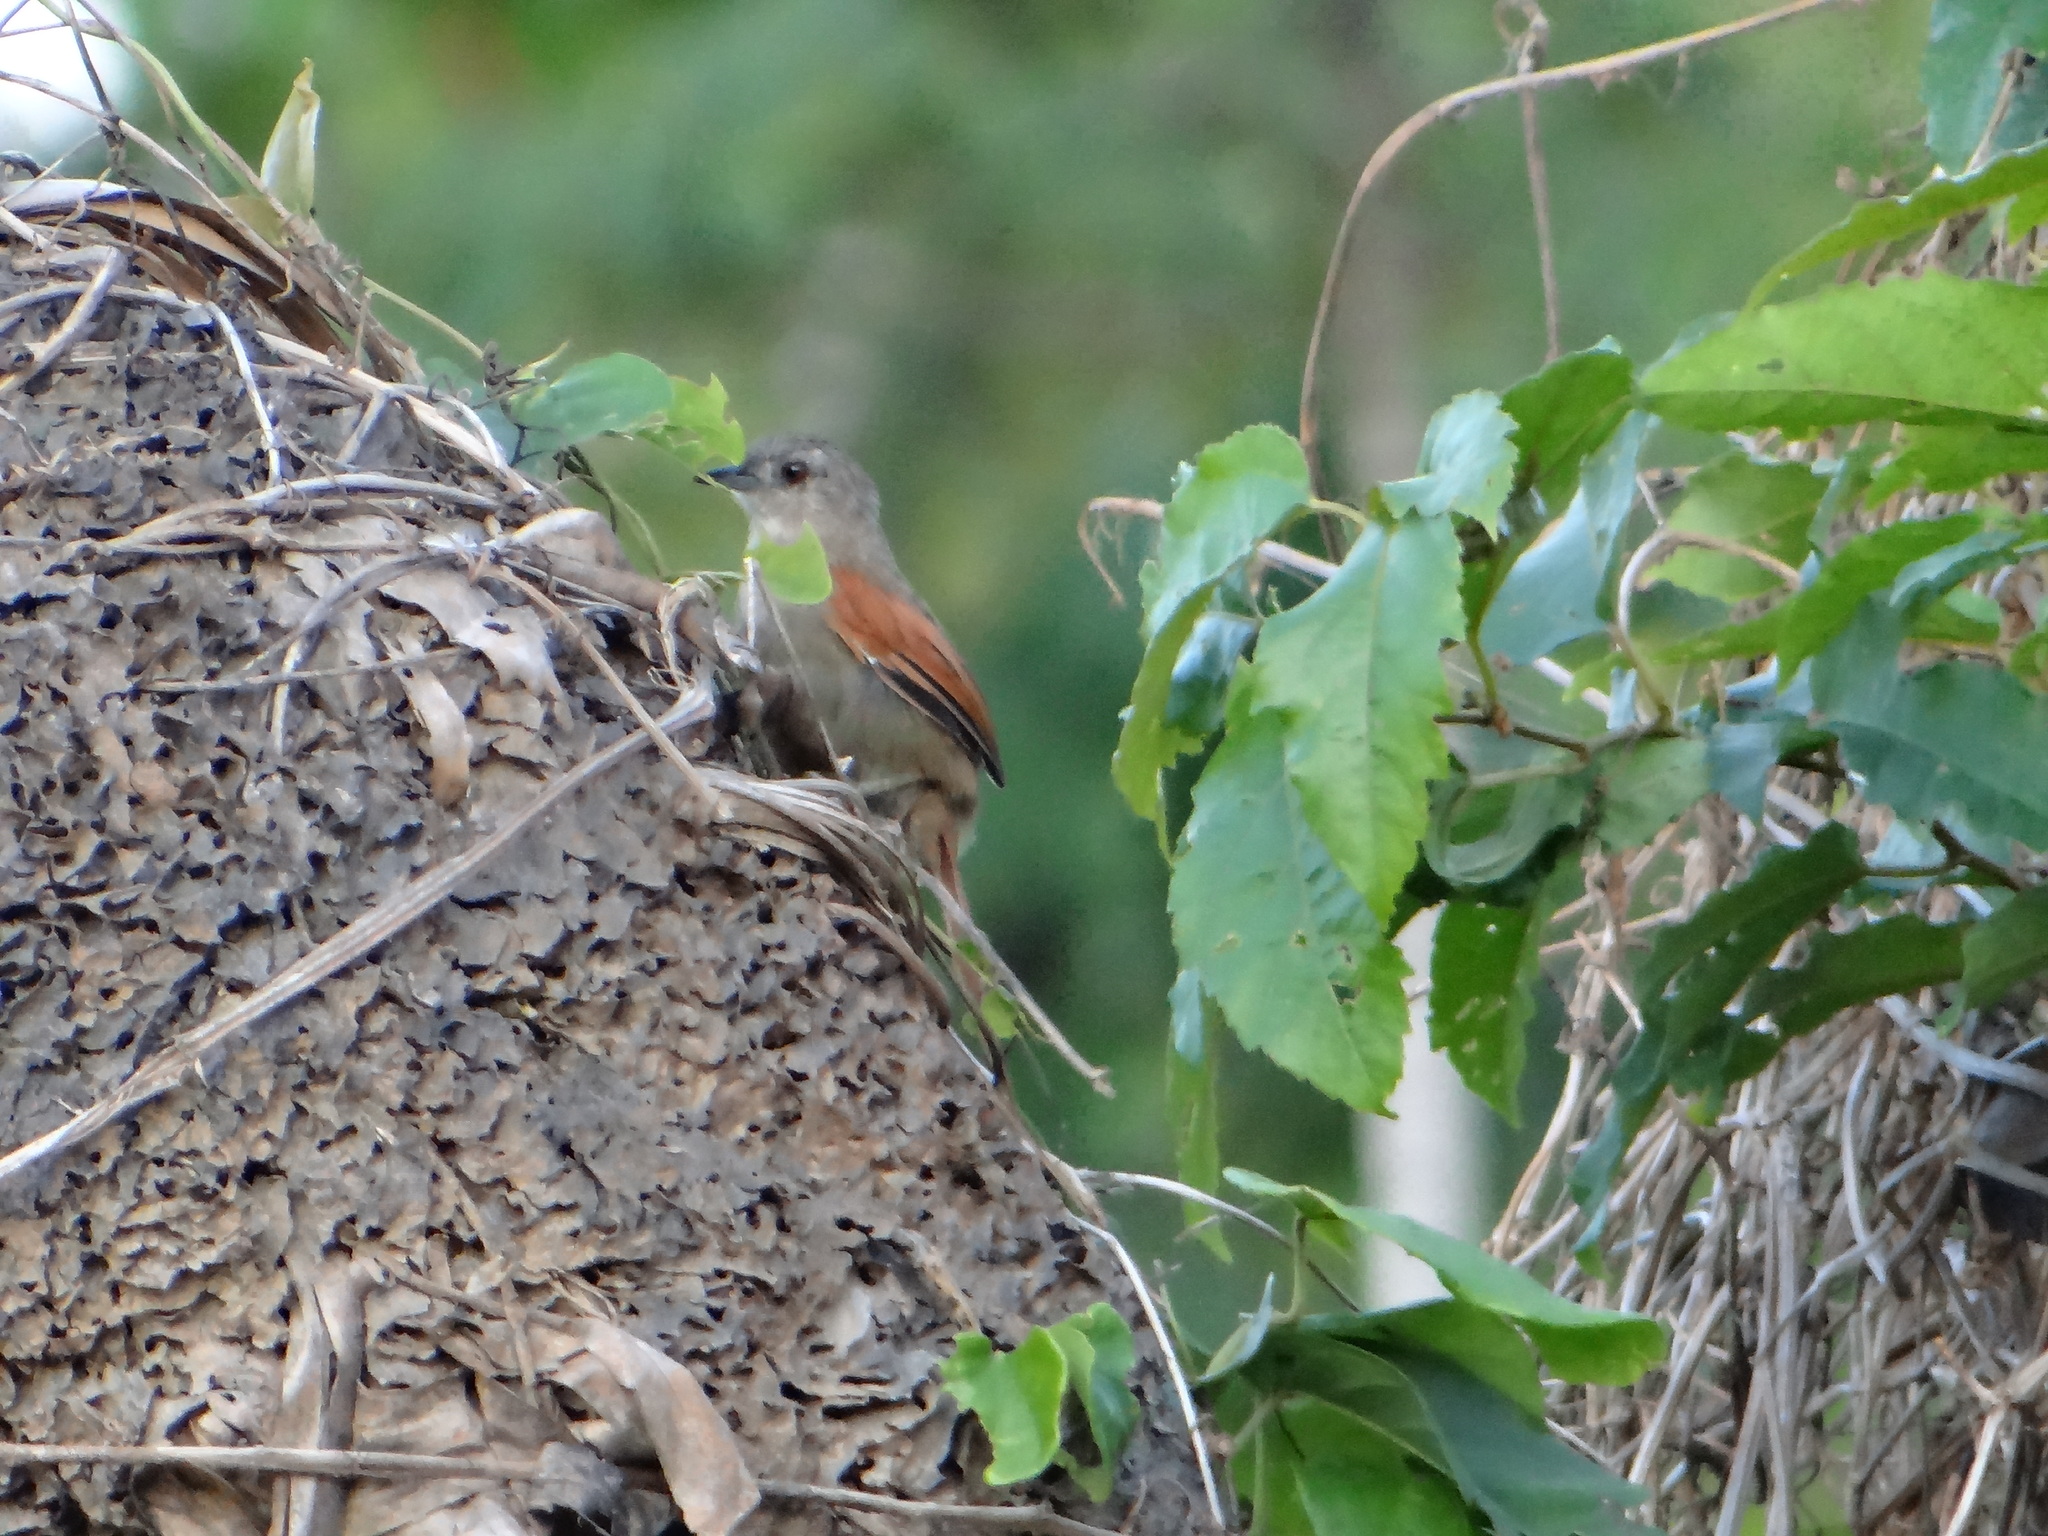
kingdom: Animalia
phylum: Chordata
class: Aves
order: Passeriformes
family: Furnariidae
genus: Synallaxis
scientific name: Synallaxis gujanensis
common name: Plain-crowned spinetail
